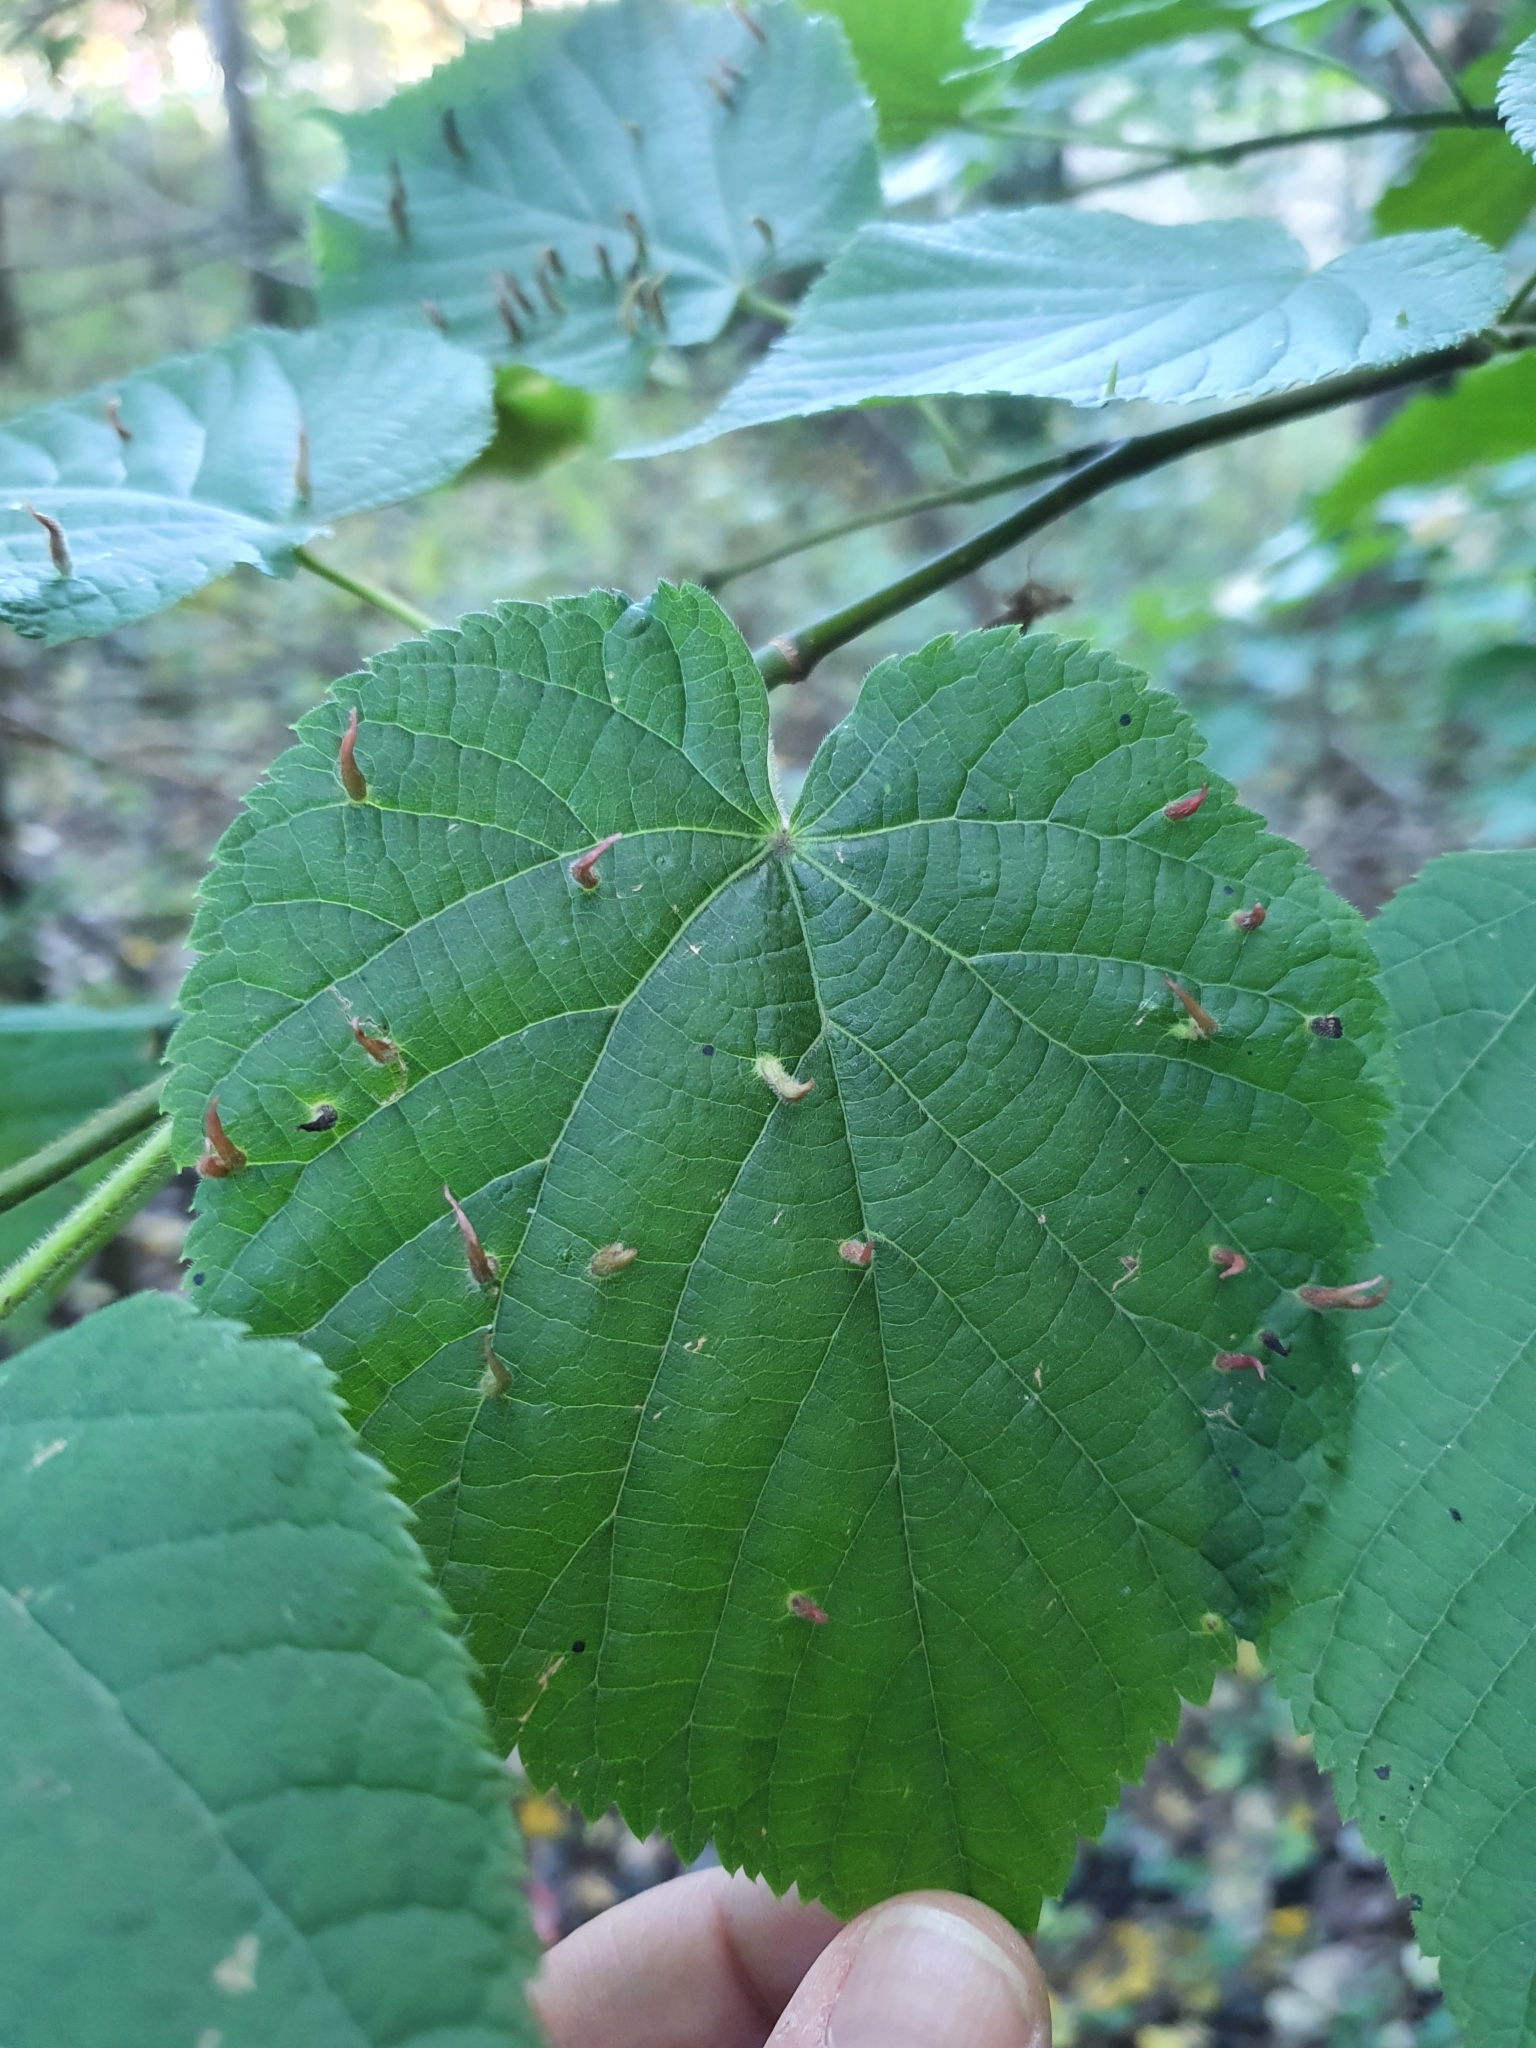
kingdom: Animalia
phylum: Arthropoda
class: Arachnida
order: Trombidiformes
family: Eriophyidae
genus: Eriophyes
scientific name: Eriophyes tiliae
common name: Red nail gall mite
